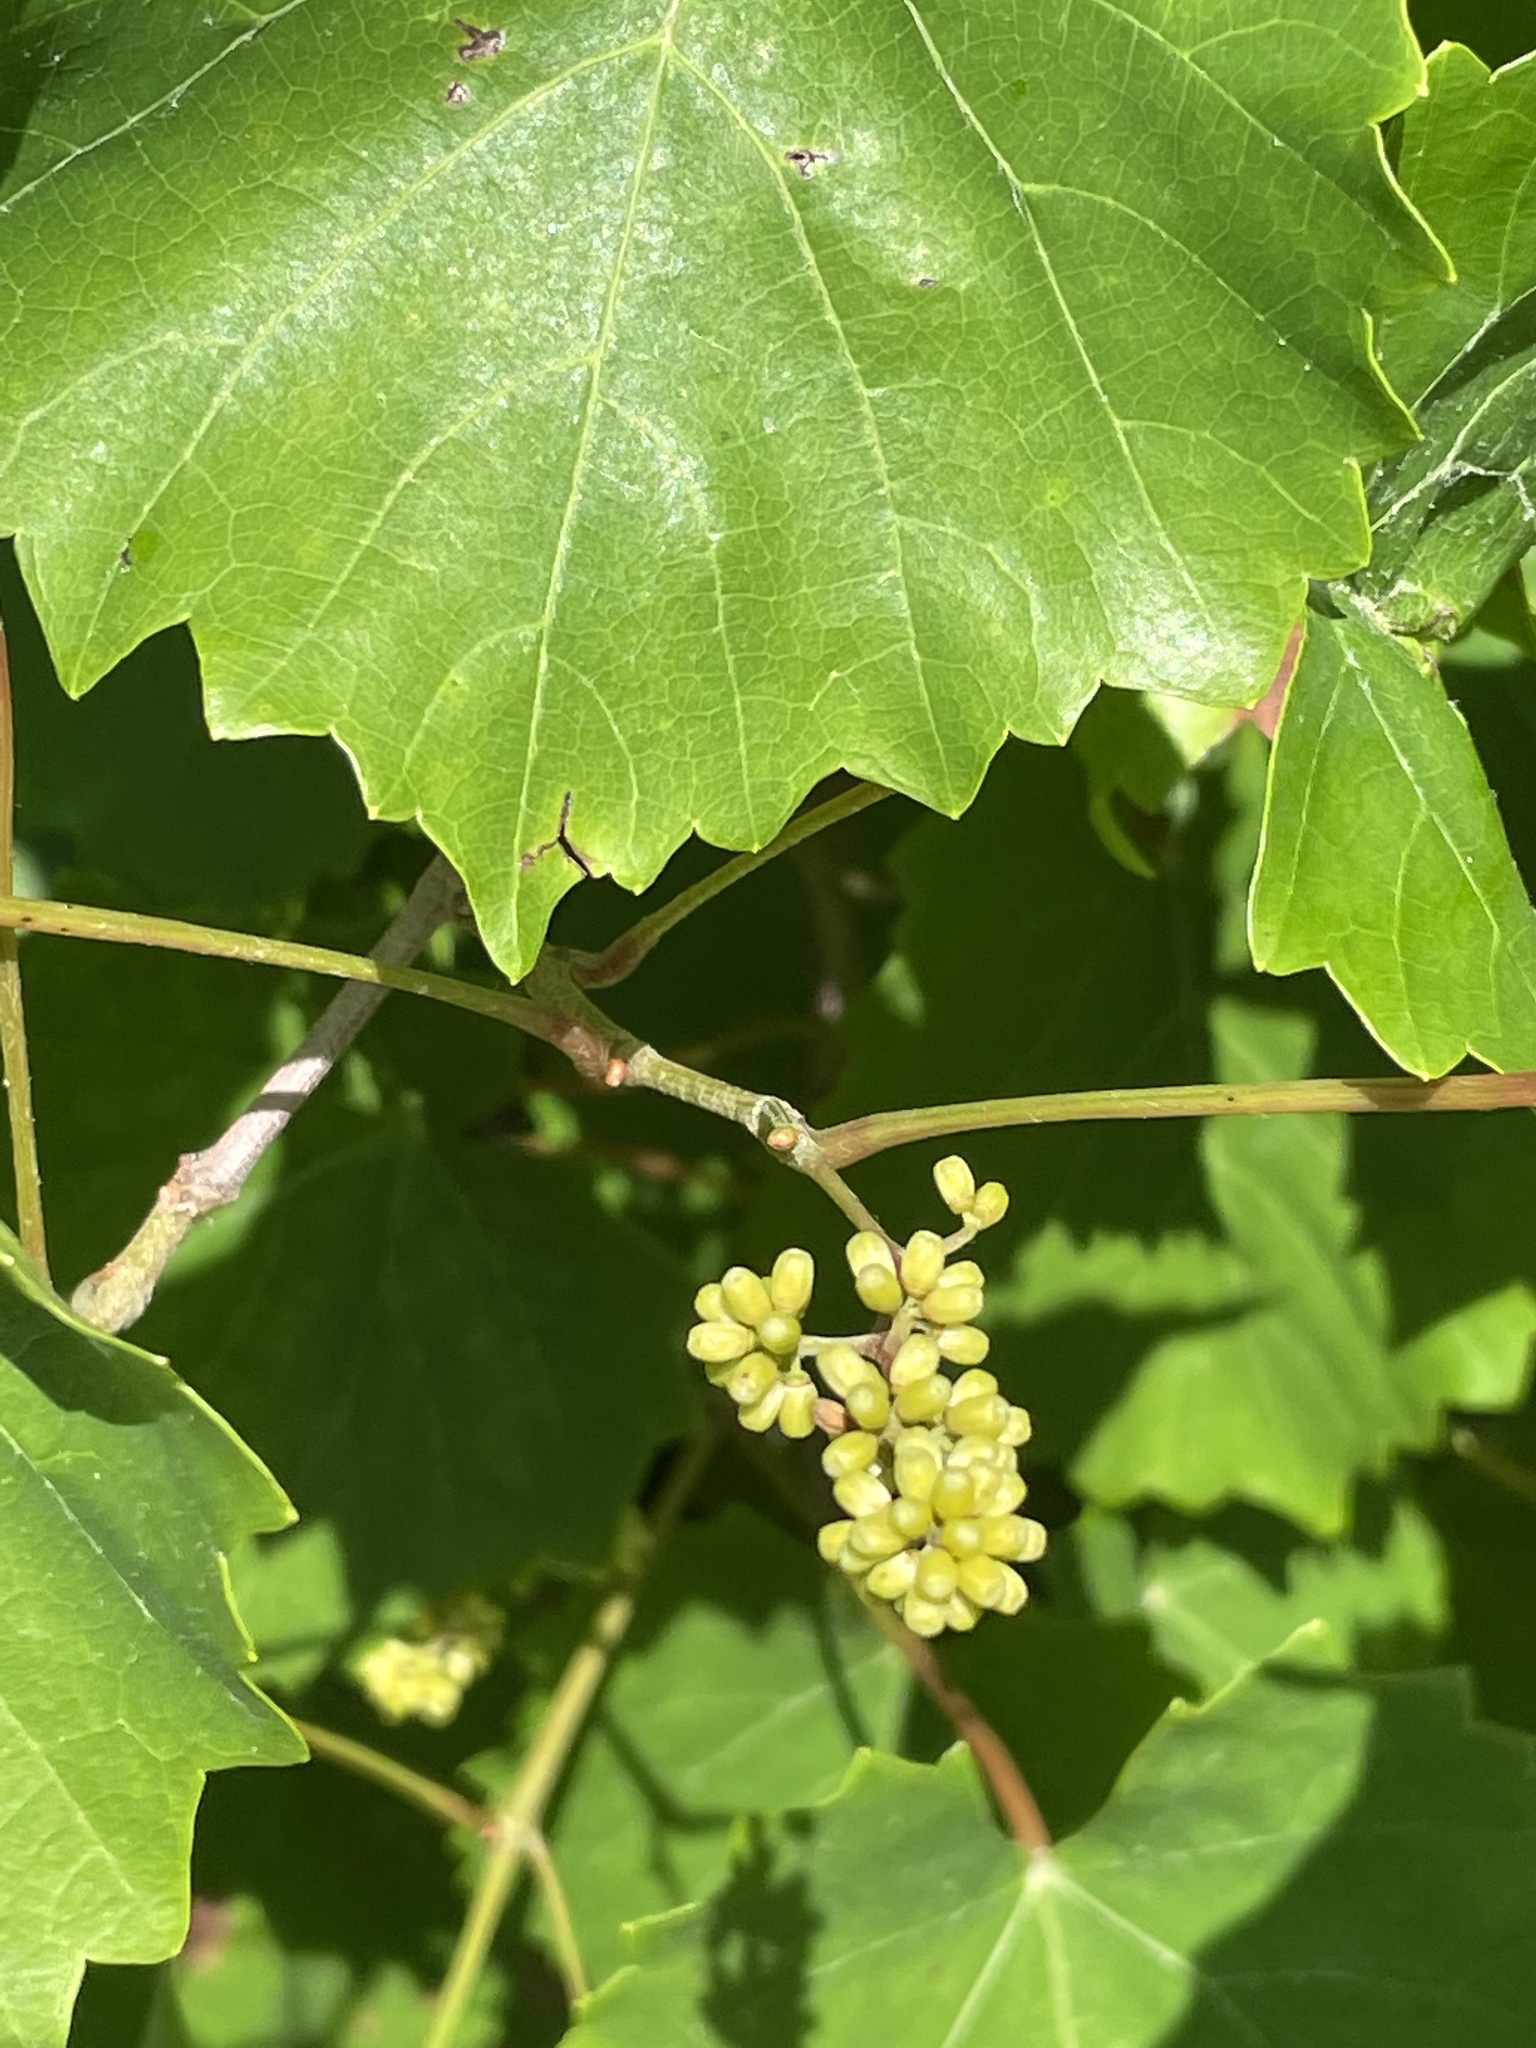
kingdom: Plantae
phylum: Tracheophyta
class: Magnoliopsida
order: Vitales
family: Vitaceae
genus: Vitis
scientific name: Vitis rotundifolia
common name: Muscadine grape
